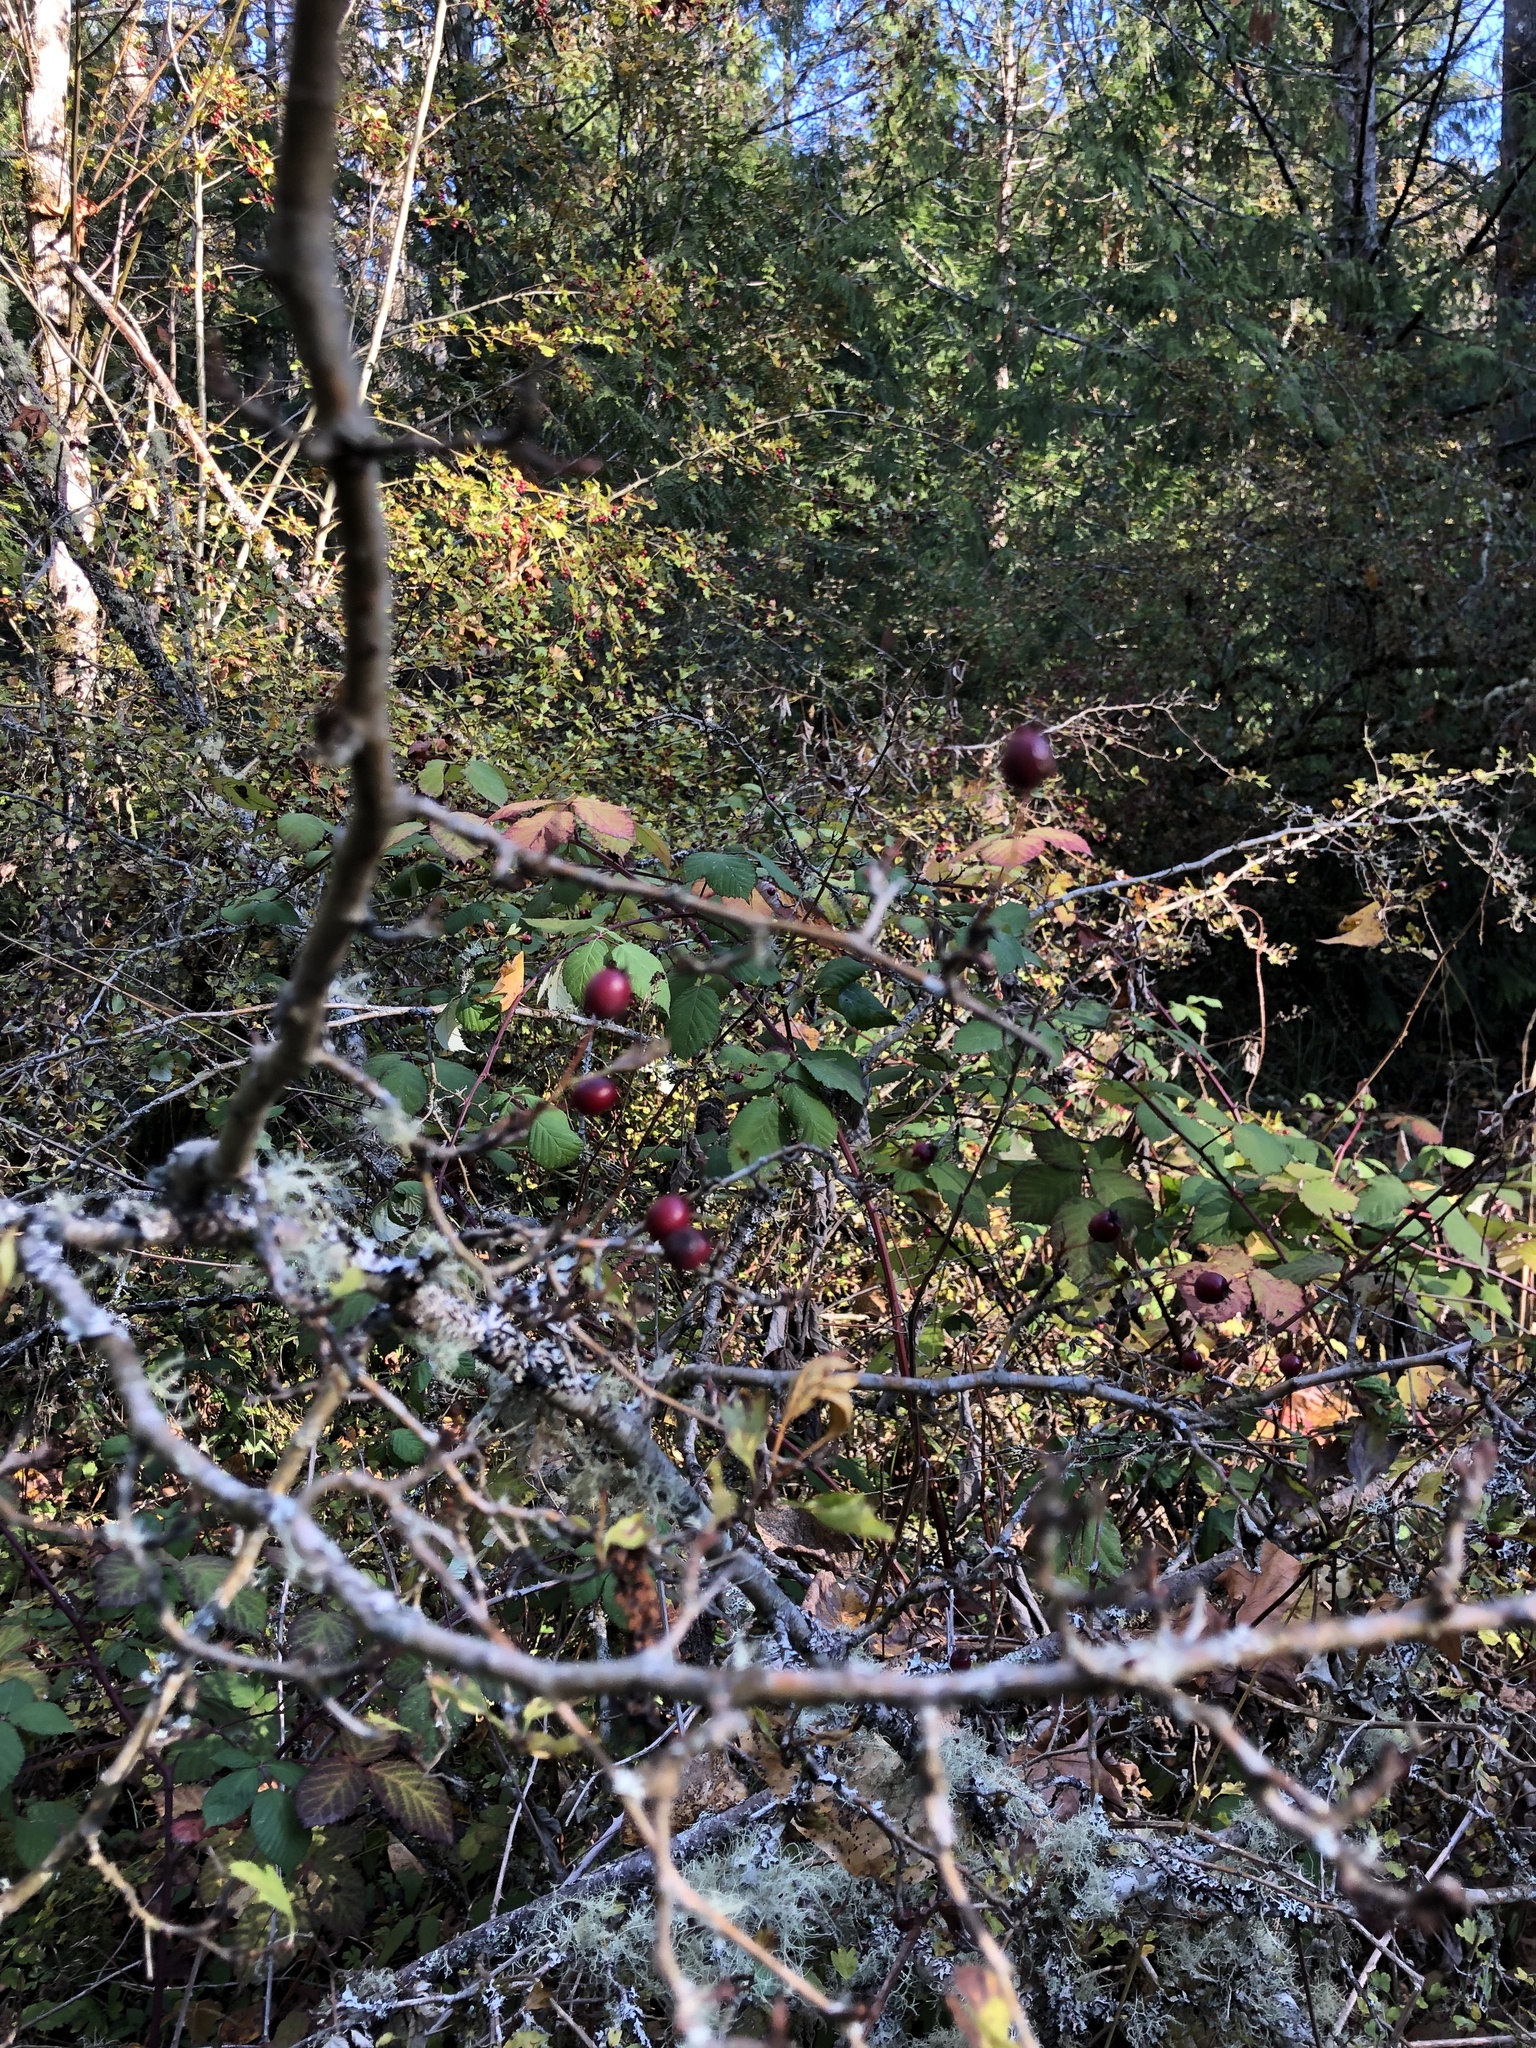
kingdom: Plantae
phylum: Tracheophyta
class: Magnoliopsida
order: Rosales
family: Rosaceae
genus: Crataegus
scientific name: Crataegus monogyna
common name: Hawthorn
